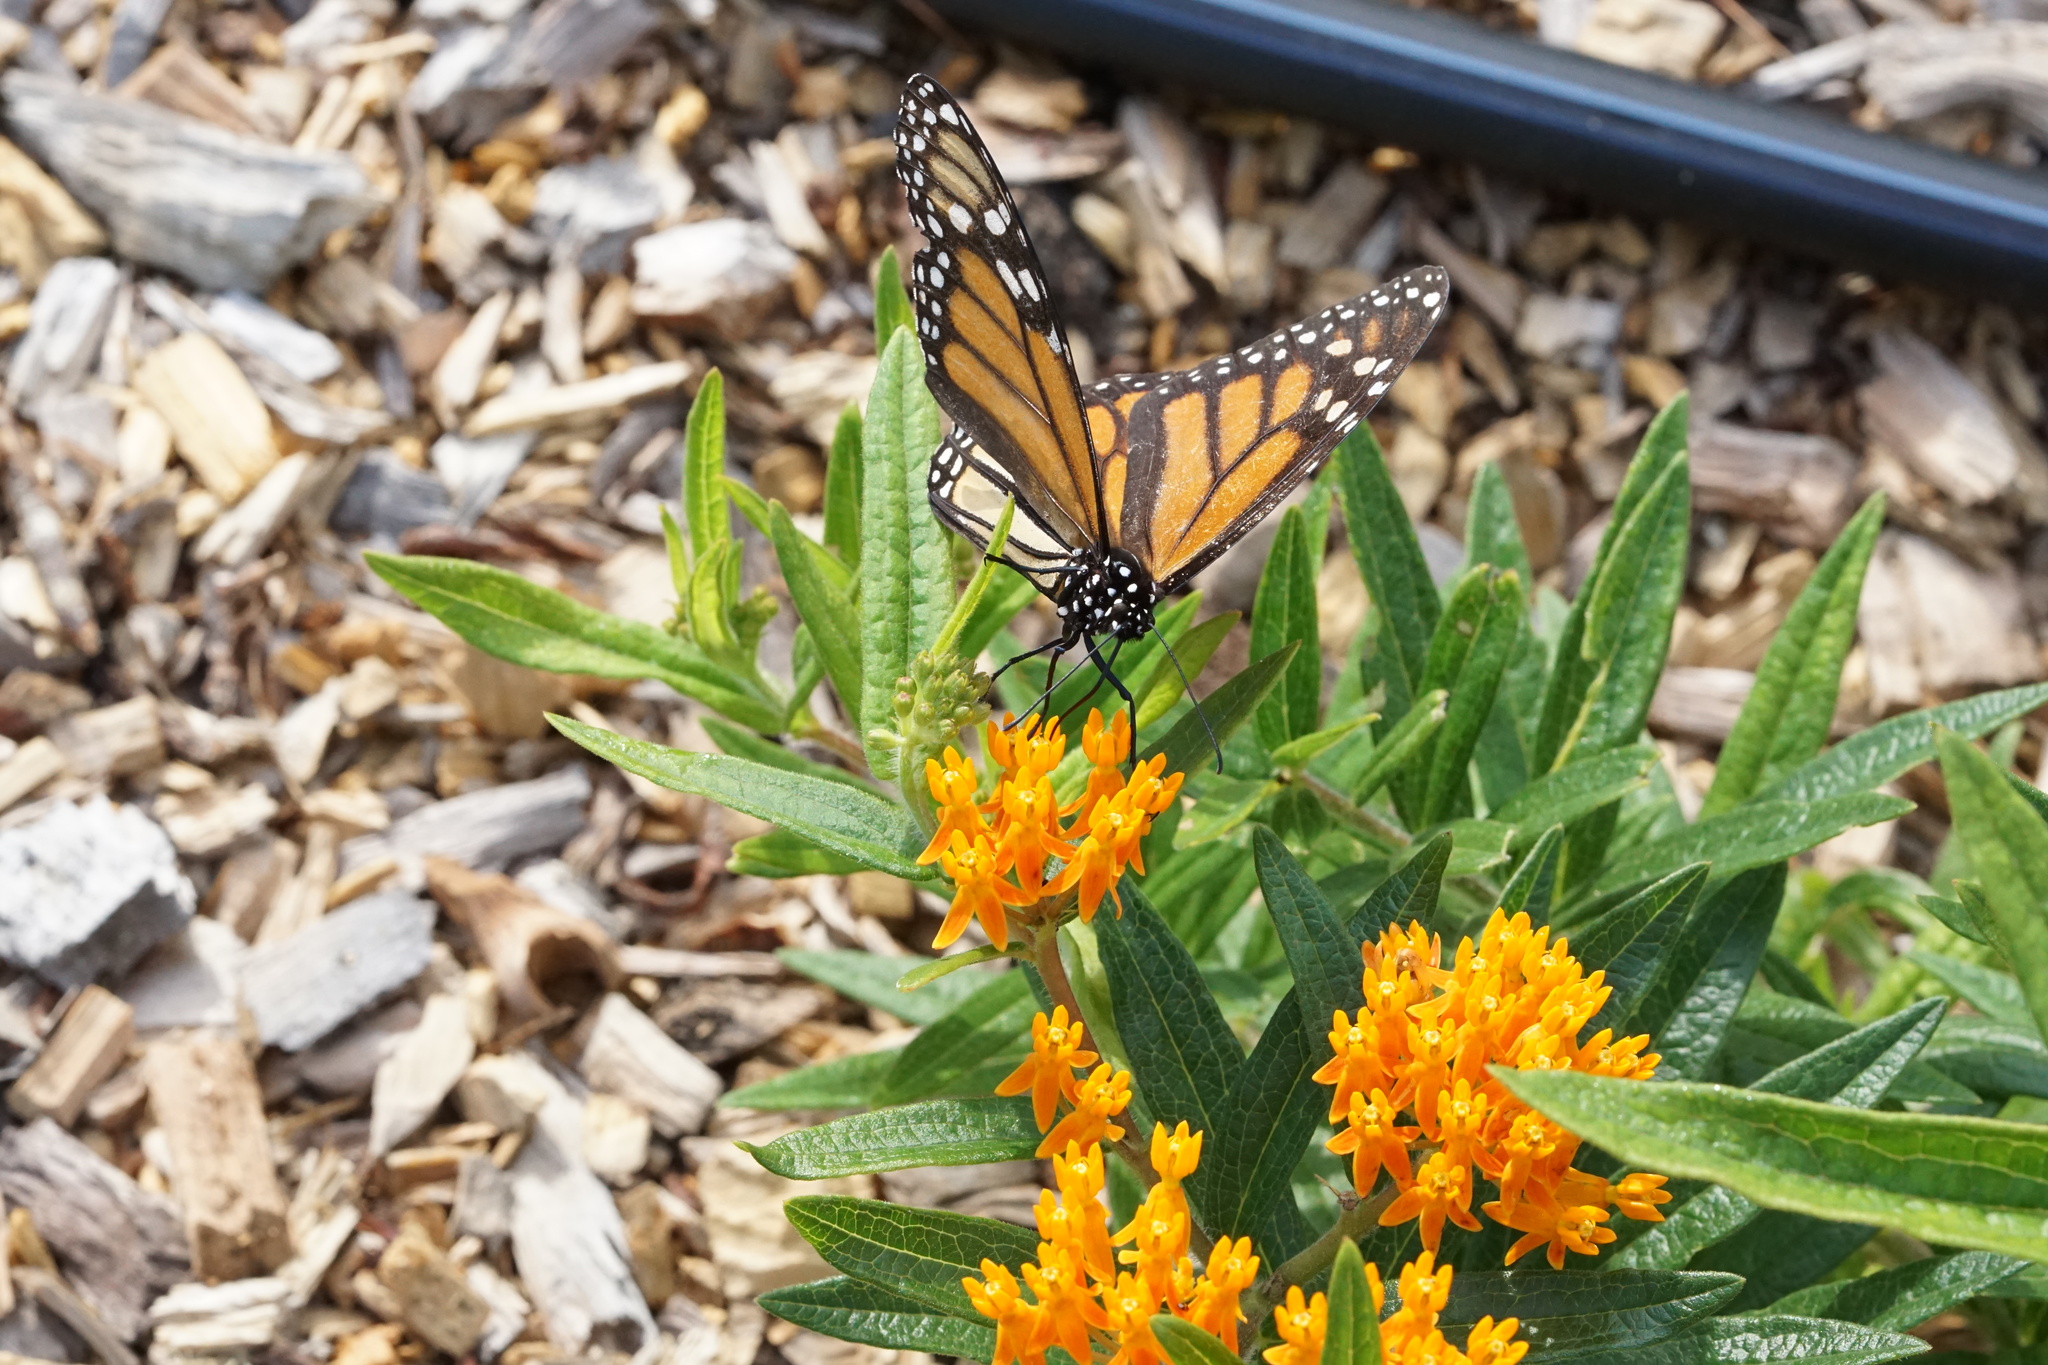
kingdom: Animalia
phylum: Arthropoda
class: Insecta
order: Lepidoptera
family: Nymphalidae
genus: Danaus
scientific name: Danaus plexippus
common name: Monarch
